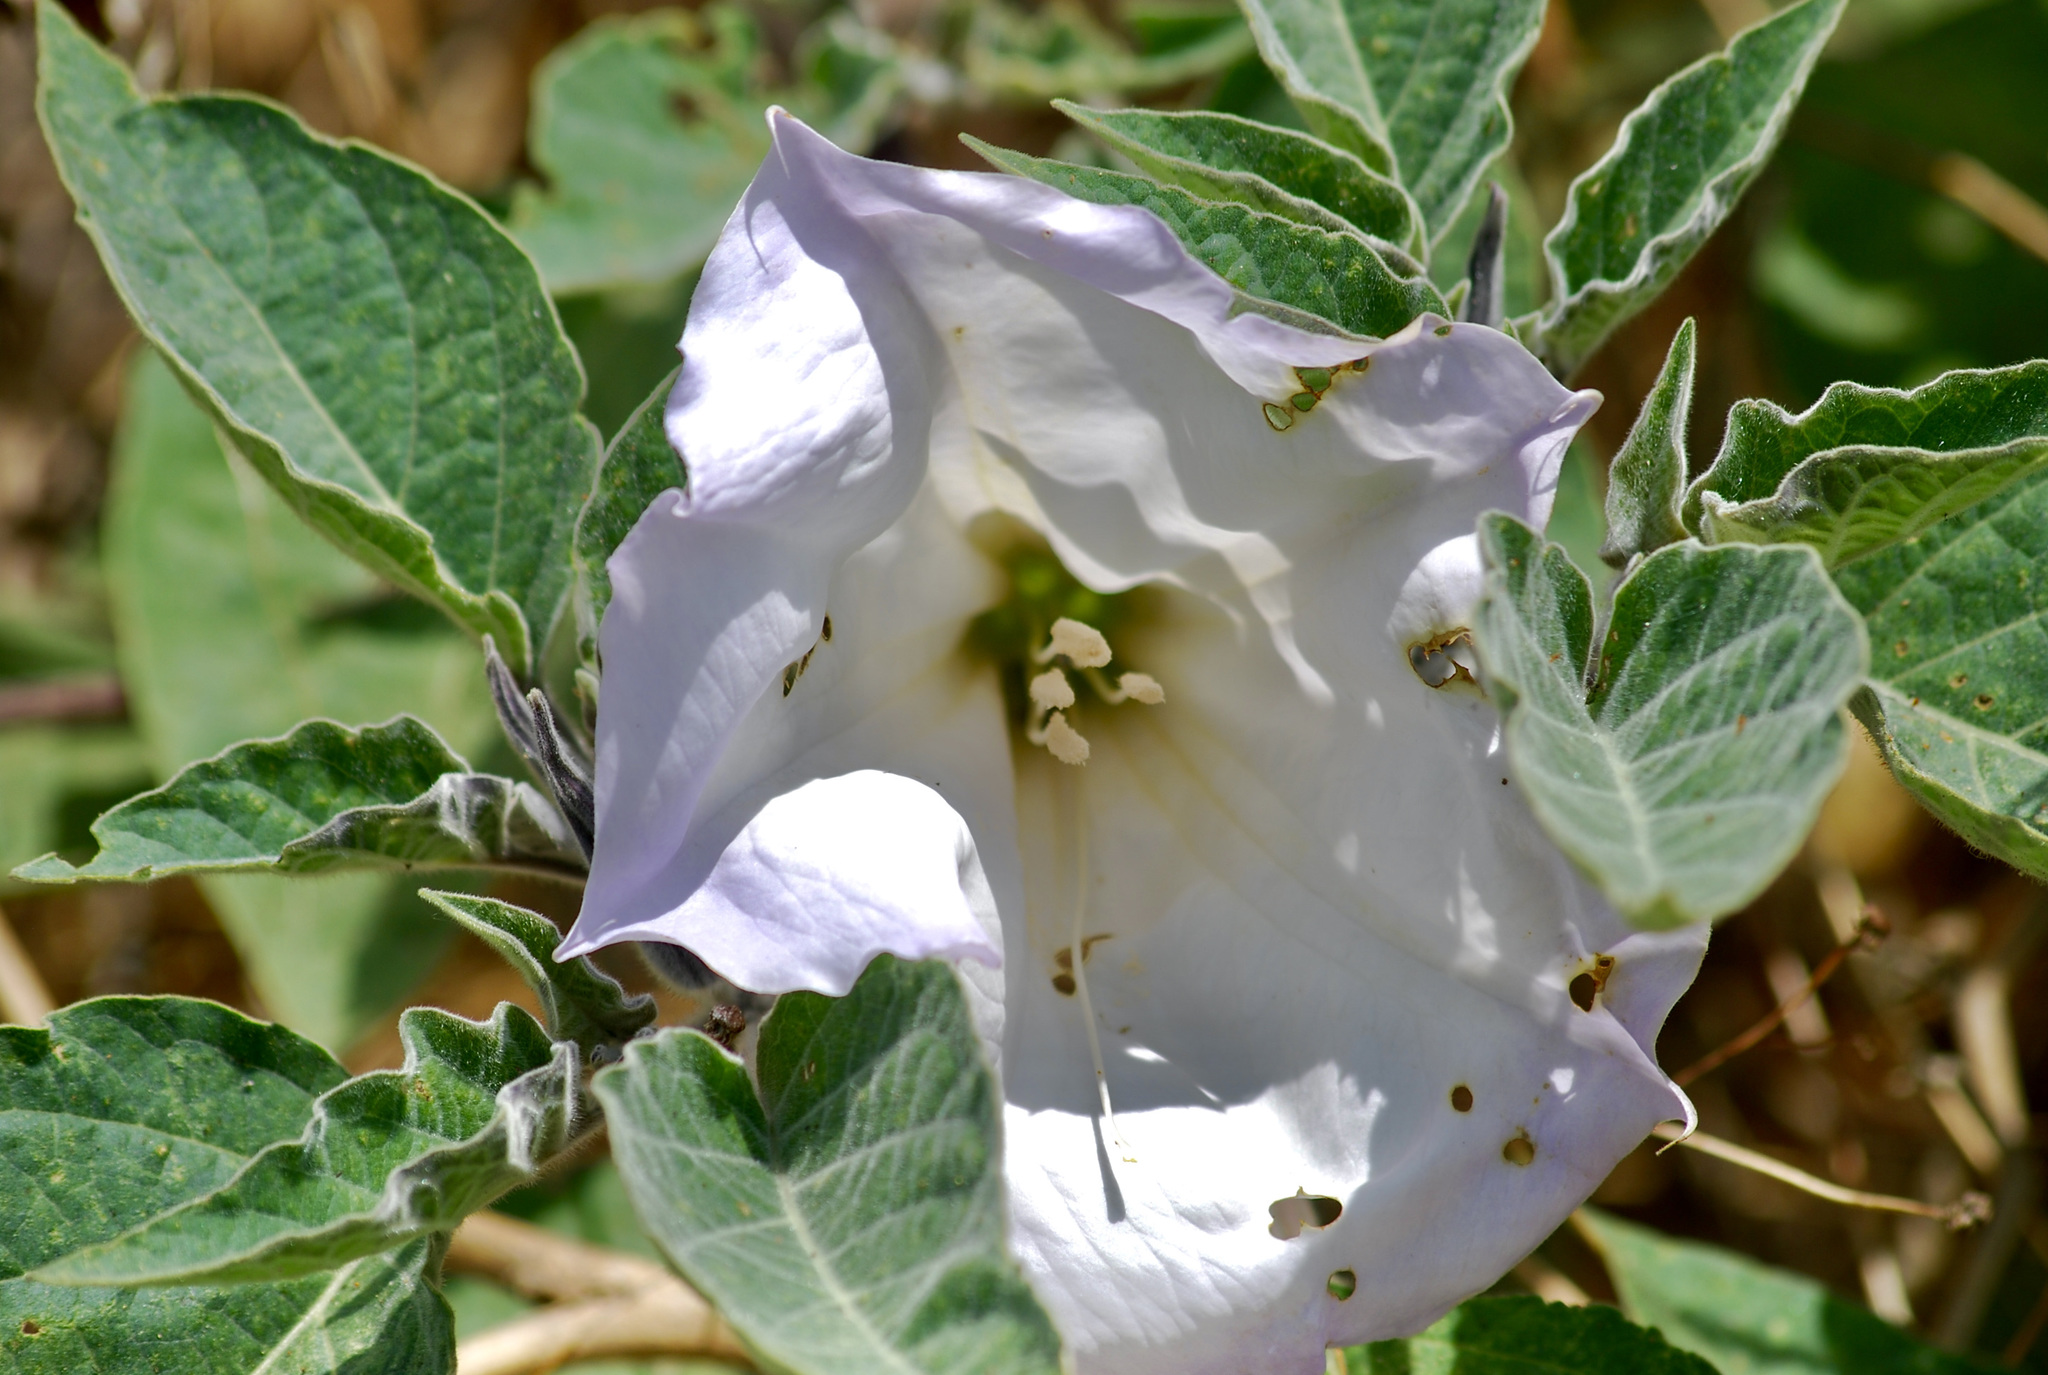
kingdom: Plantae
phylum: Tracheophyta
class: Magnoliopsida
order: Solanales
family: Solanaceae
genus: Datura
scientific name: Datura wrightii
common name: Sacred thorn-apple
